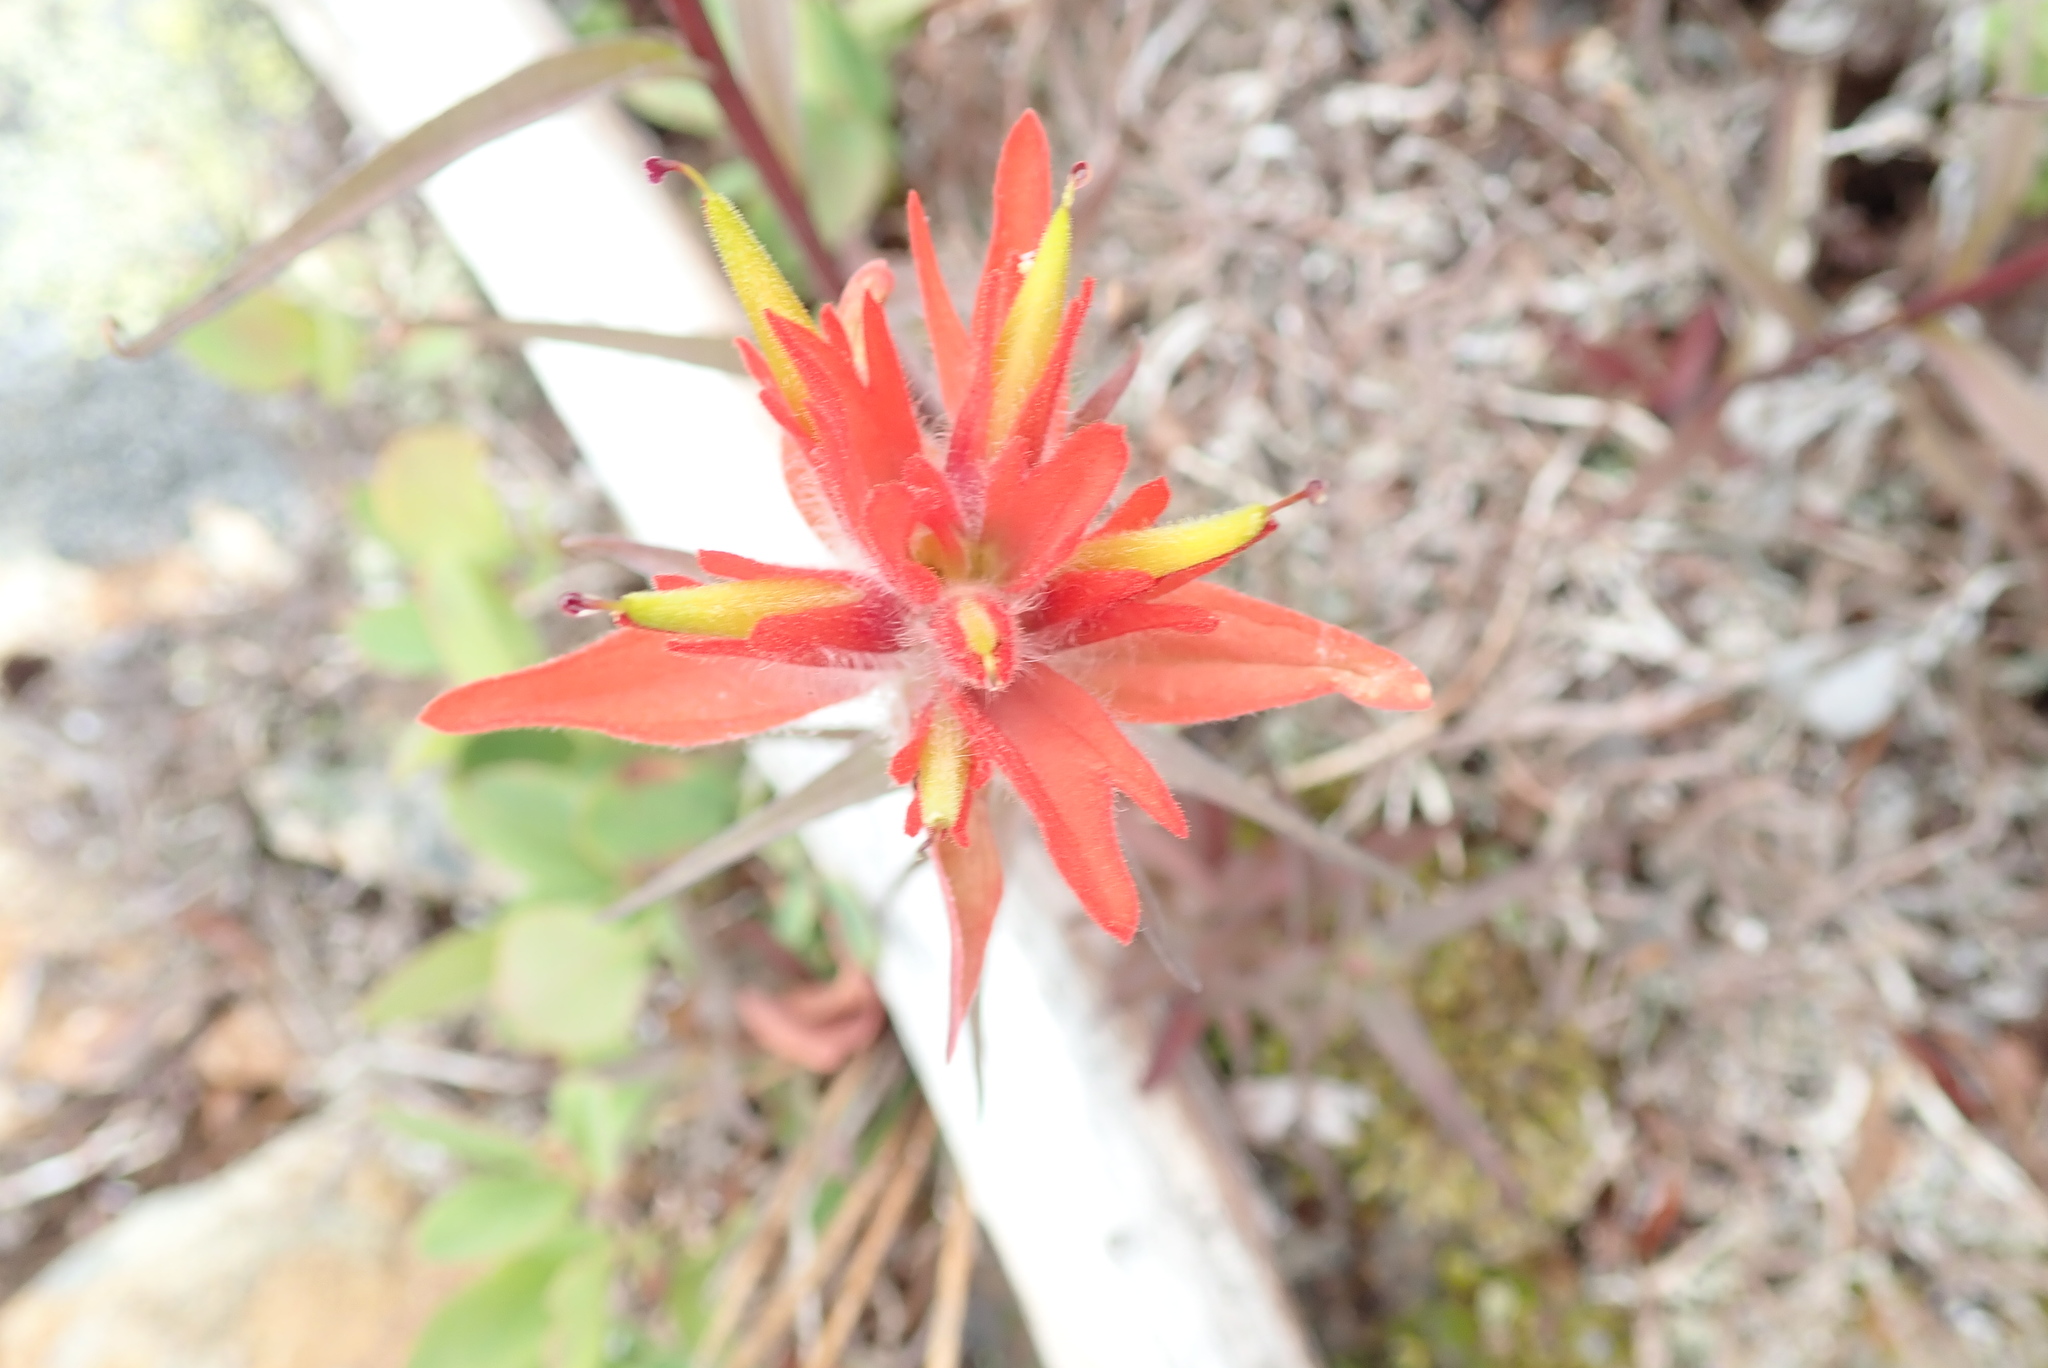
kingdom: Plantae
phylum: Tracheophyta
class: Magnoliopsida
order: Lamiales
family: Orobanchaceae
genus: Castilleja
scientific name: Castilleja miniata
